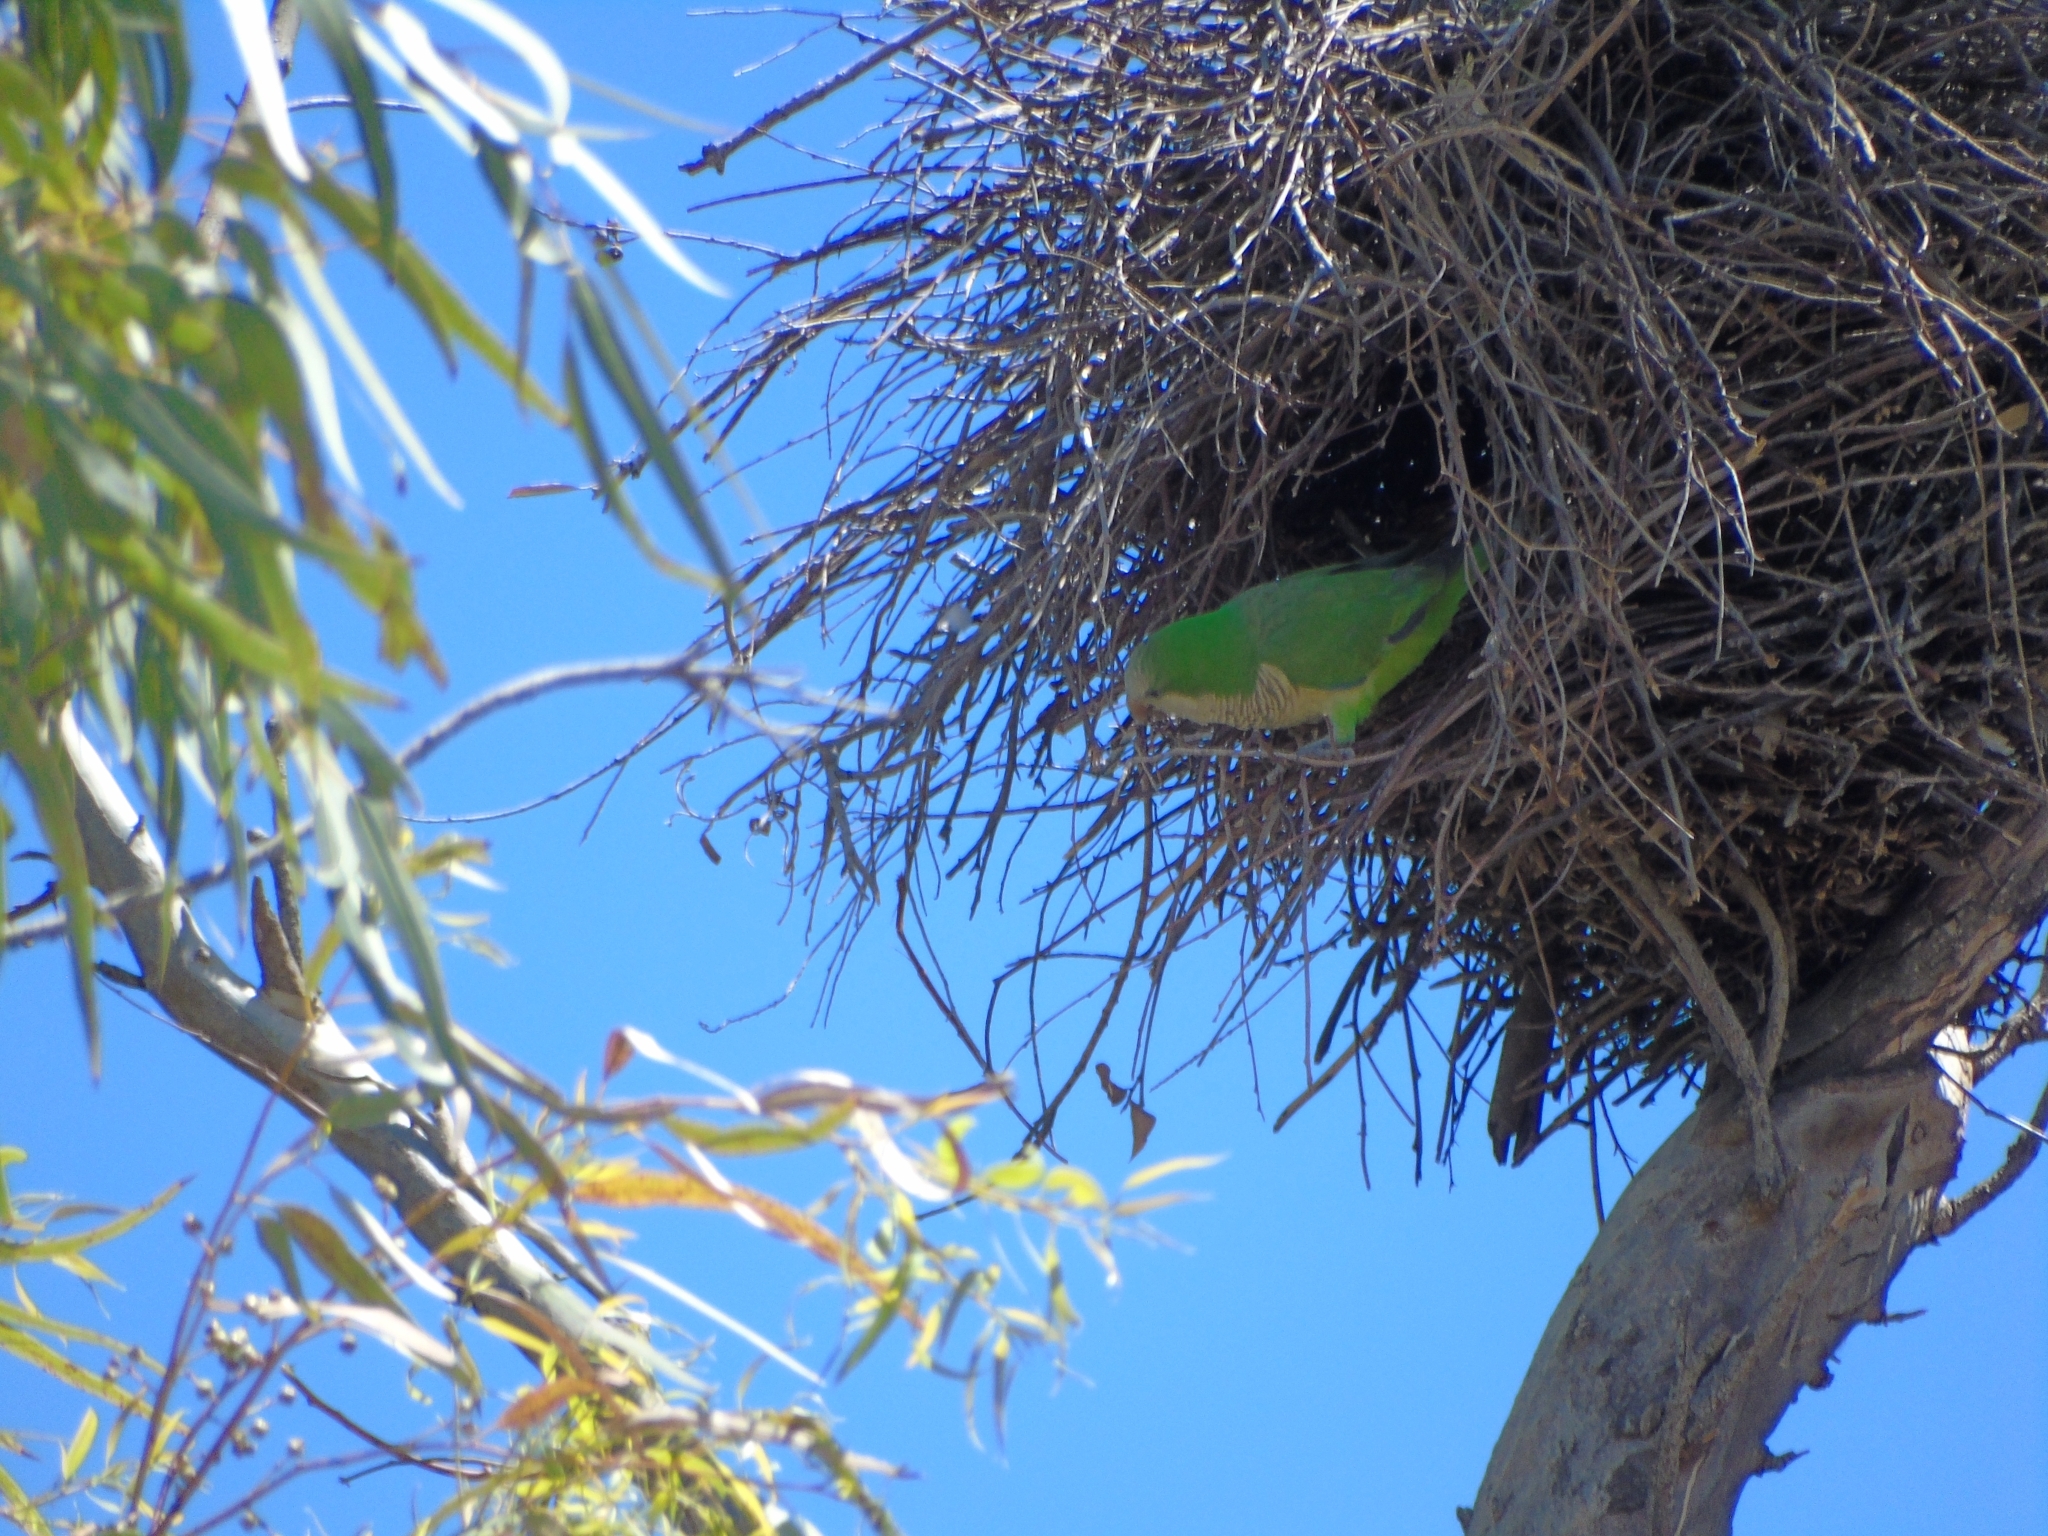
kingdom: Animalia
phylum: Chordata
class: Aves
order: Psittaciformes
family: Psittacidae
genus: Myiopsitta
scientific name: Myiopsitta monachus
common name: Monk parakeet
